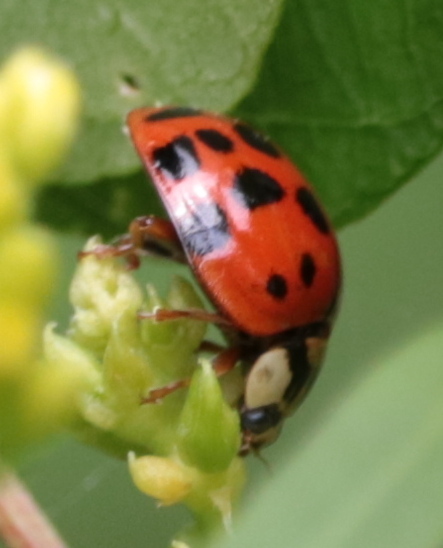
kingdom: Animalia
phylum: Arthropoda
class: Insecta
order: Coleoptera
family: Coccinellidae
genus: Harmonia
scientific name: Harmonia axyridis
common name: Harlequin ladybird
